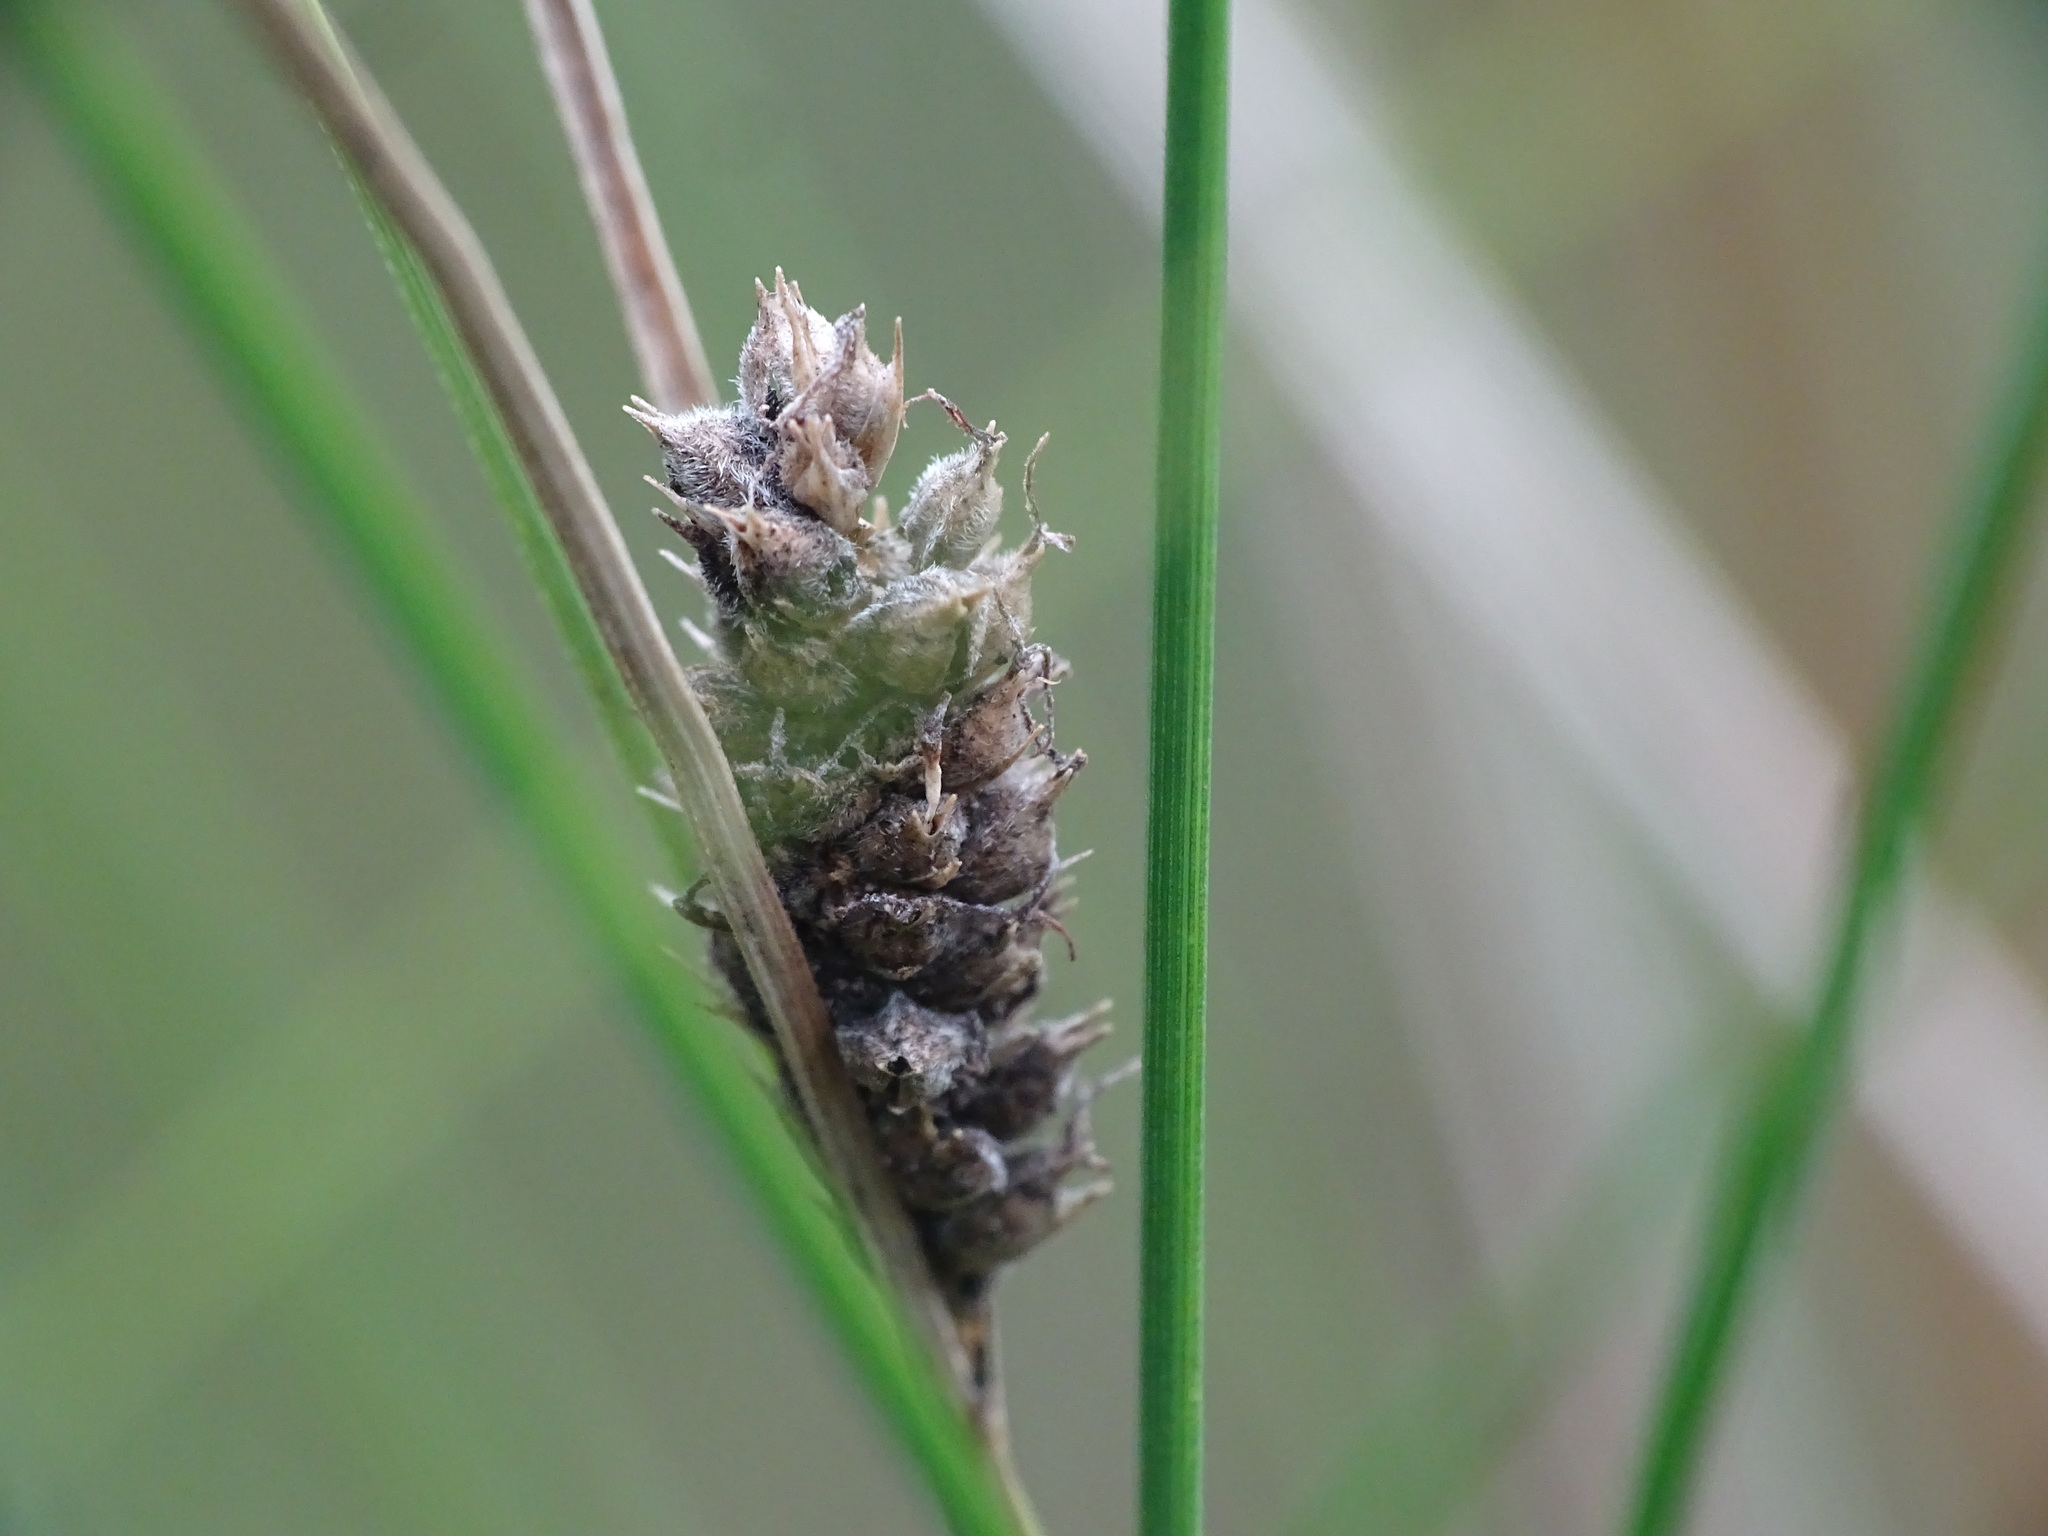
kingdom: Plantae
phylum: Tracheophyta
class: Liliopsida
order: Poales
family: Cyperaceae
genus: Carex
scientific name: Carex lasiocarpa
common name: Slender sedge
